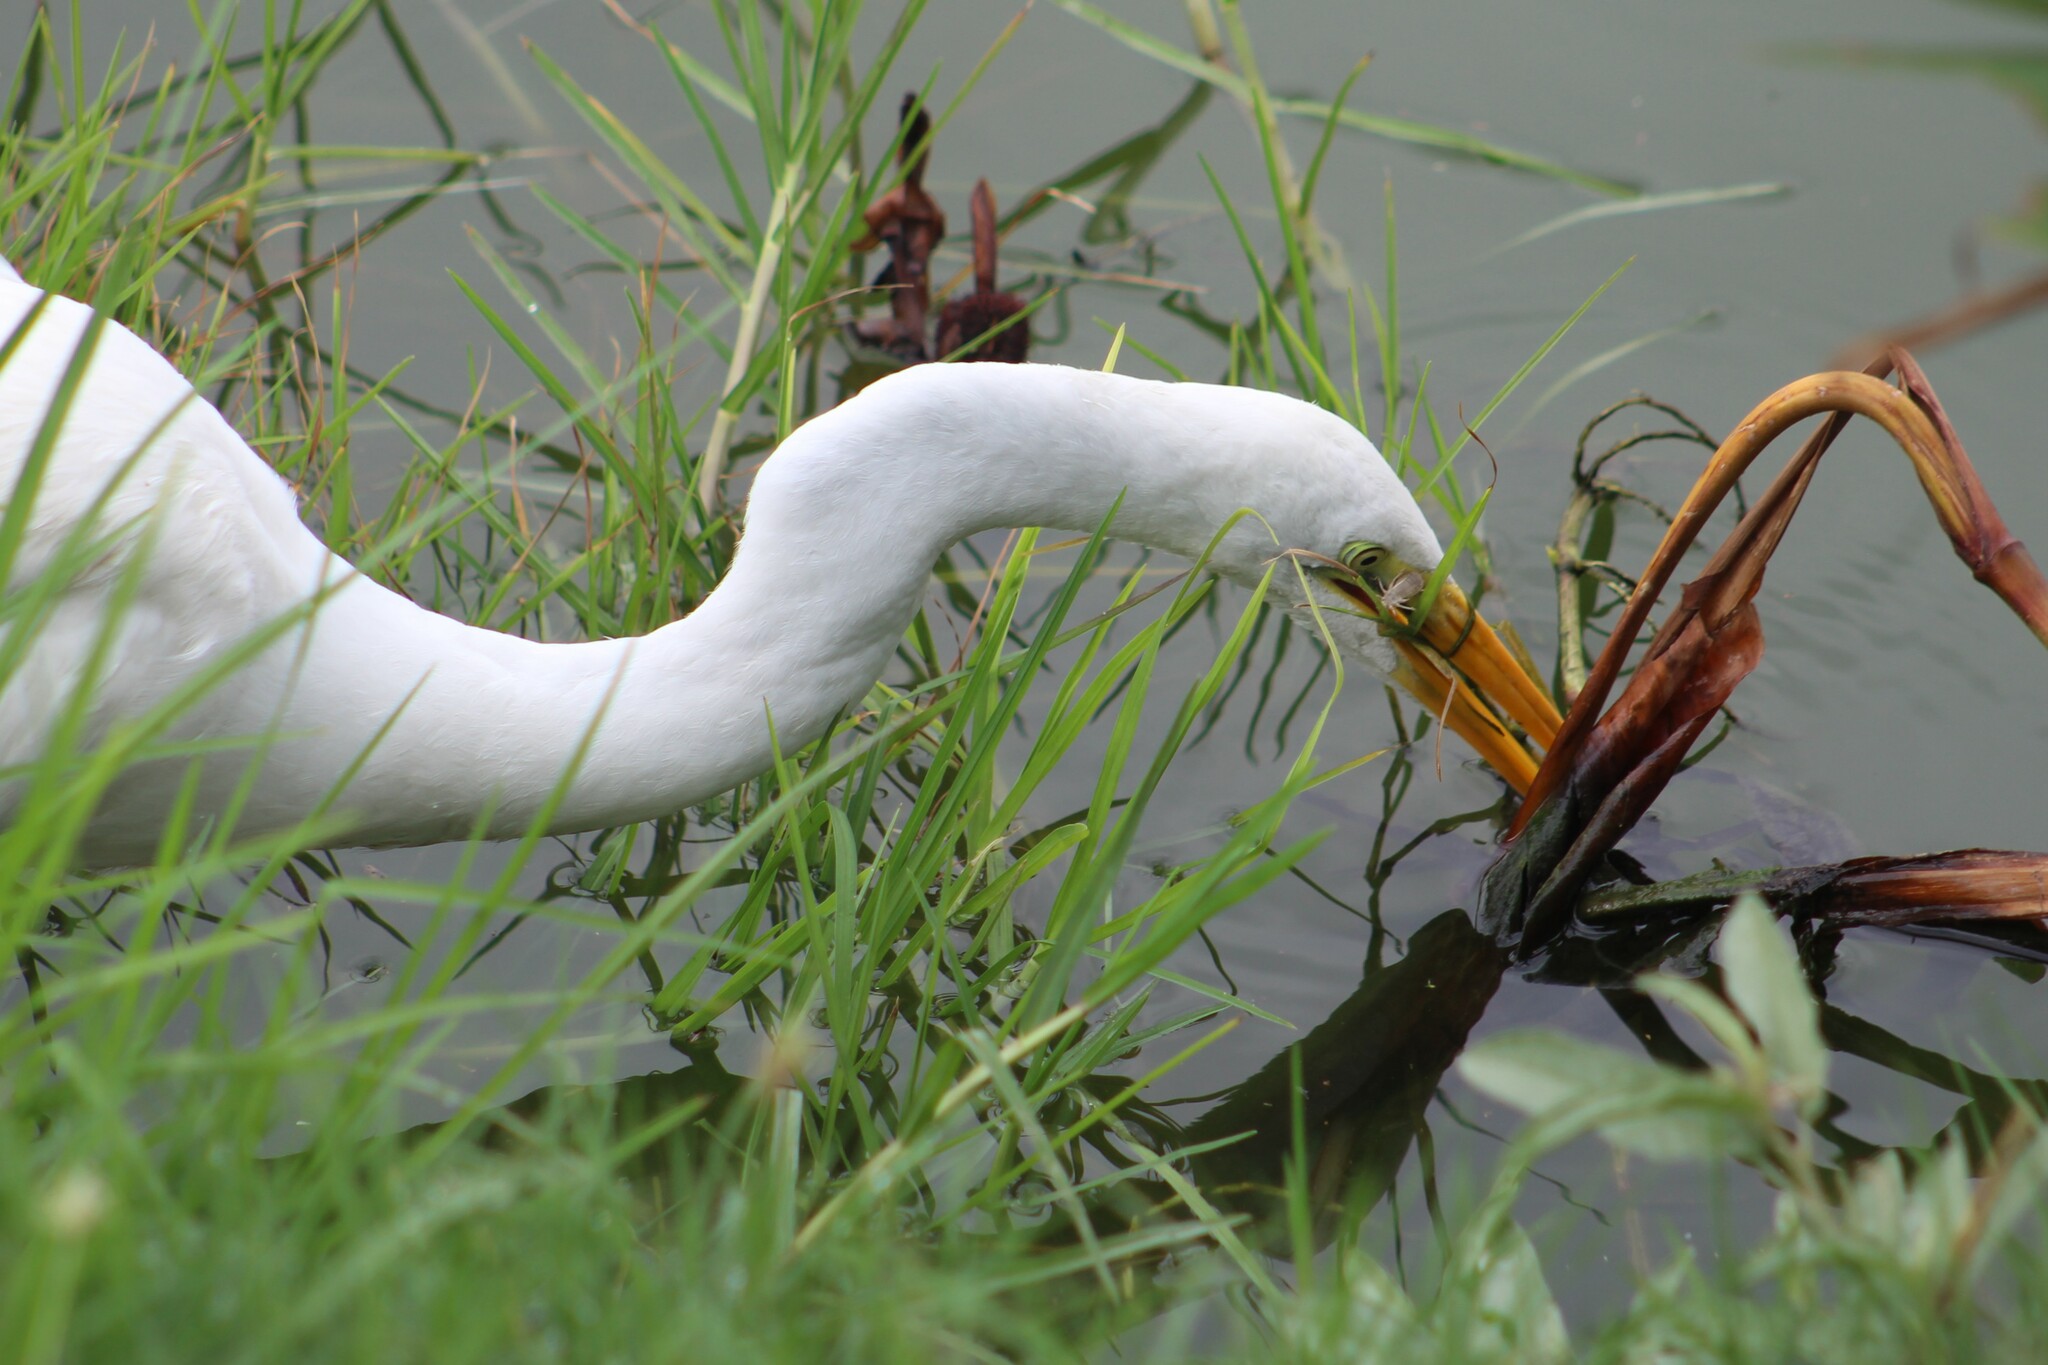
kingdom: Animalia
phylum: Chordata
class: Aves
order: Pelecaniformes
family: Ardeidae
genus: Ardea
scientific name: Ardea alba
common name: Great egret
